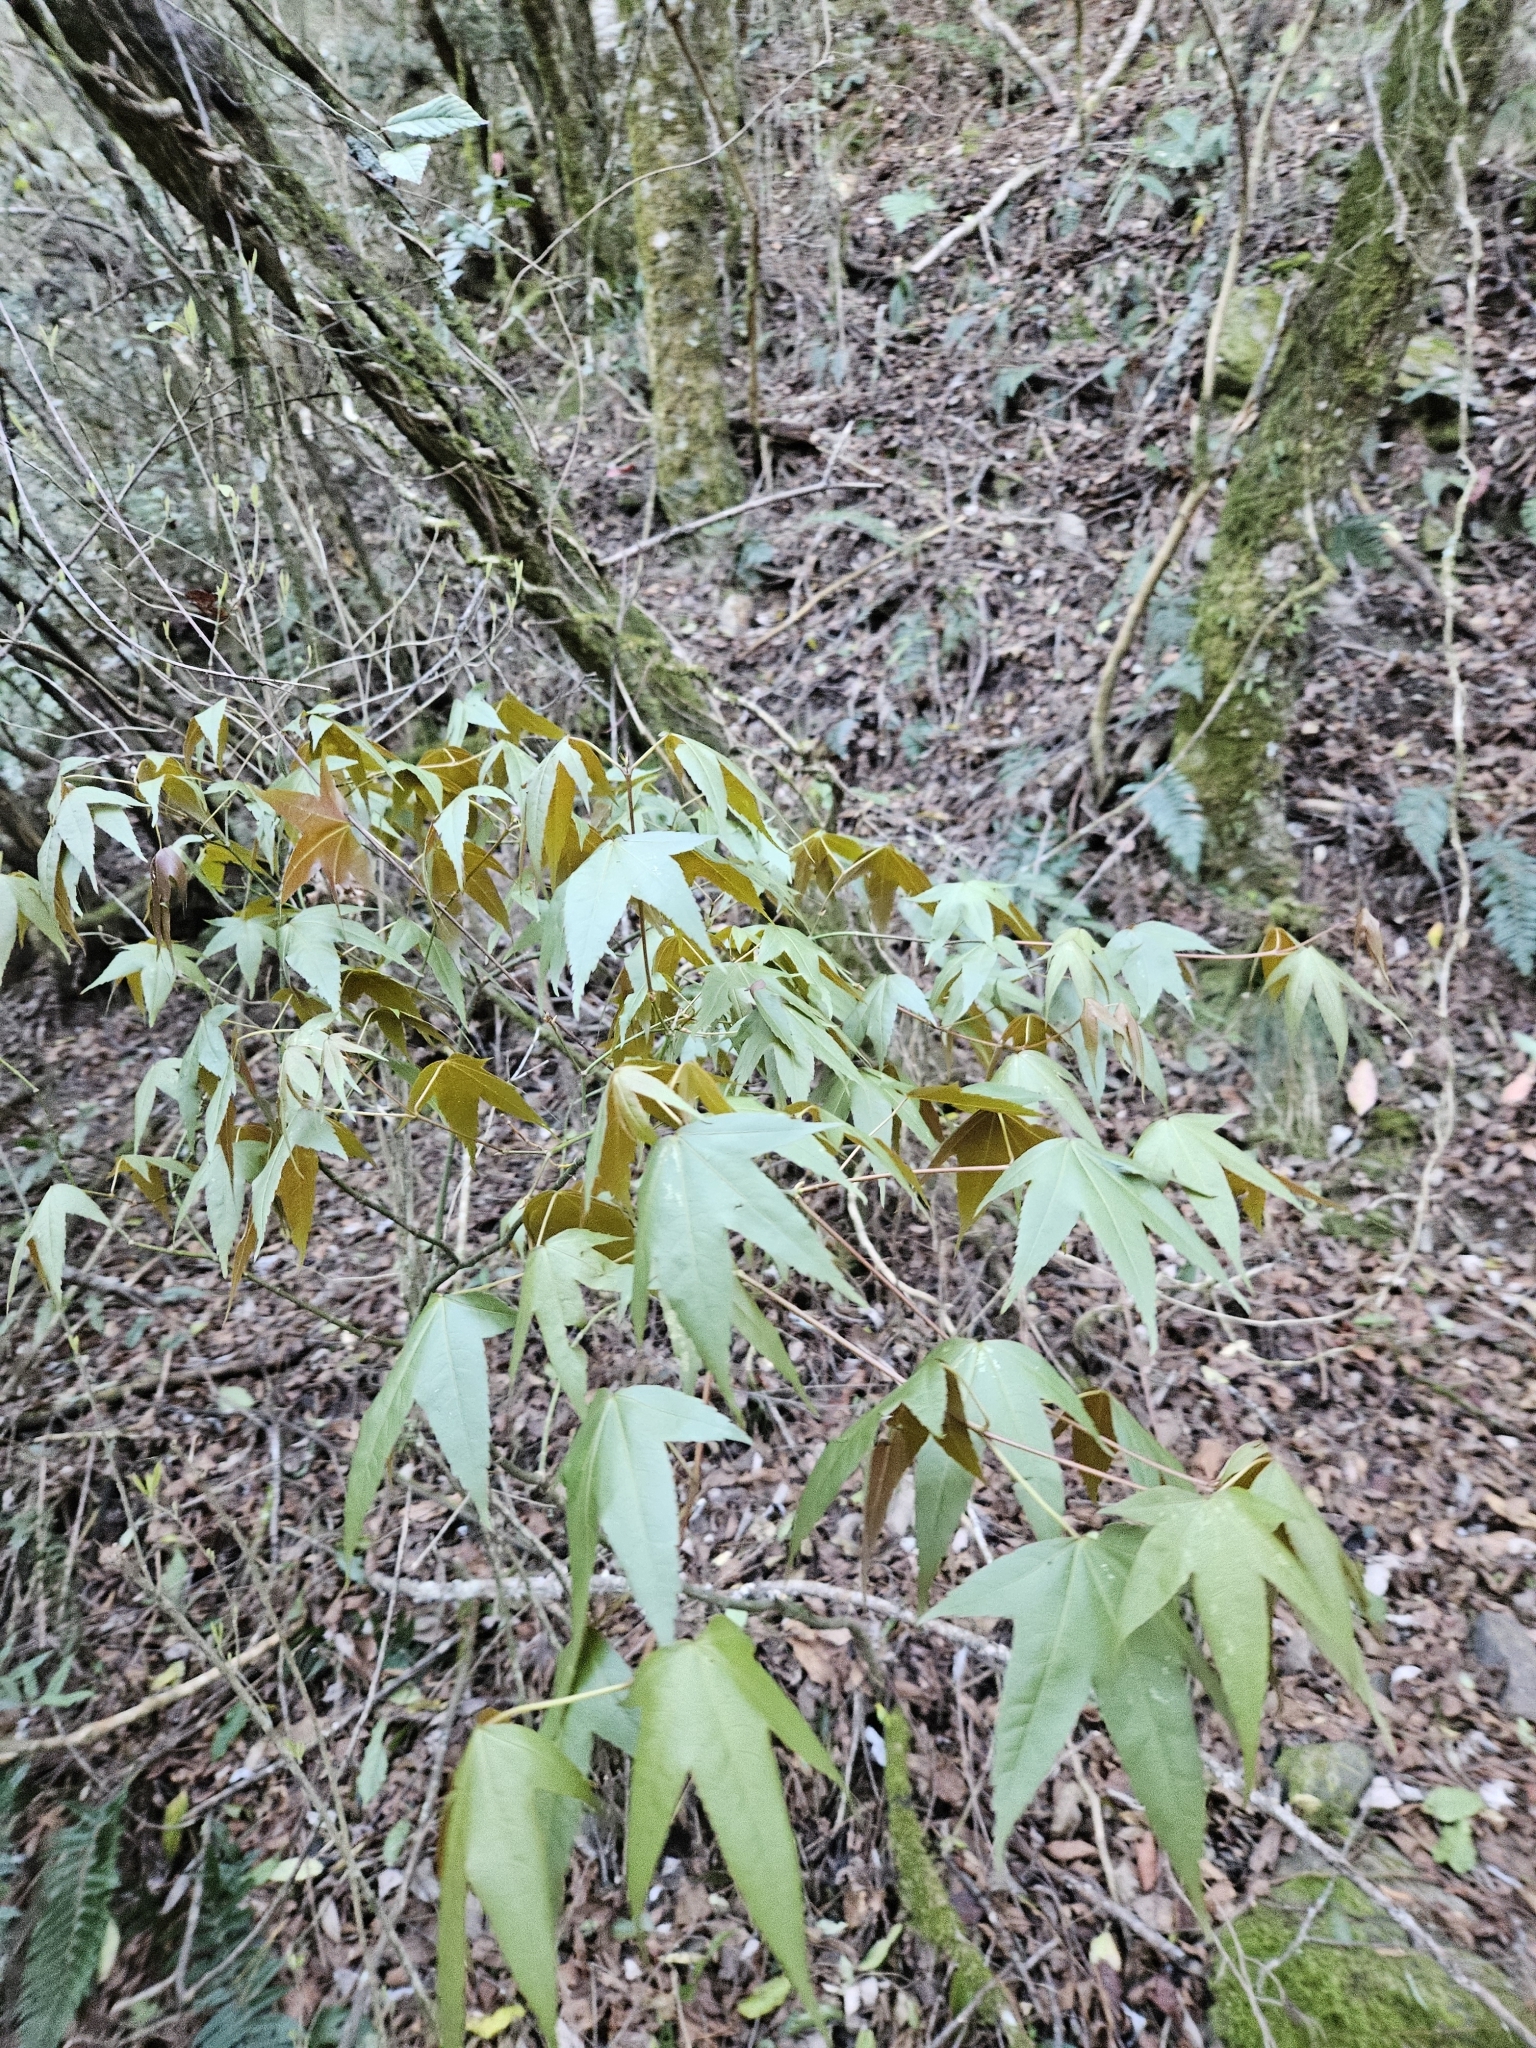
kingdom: Plantae
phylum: Tracheophyta
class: Magnoliopsida
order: Sapindales
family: Sapindaceae
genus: Acer
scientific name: Acer serrulatum
